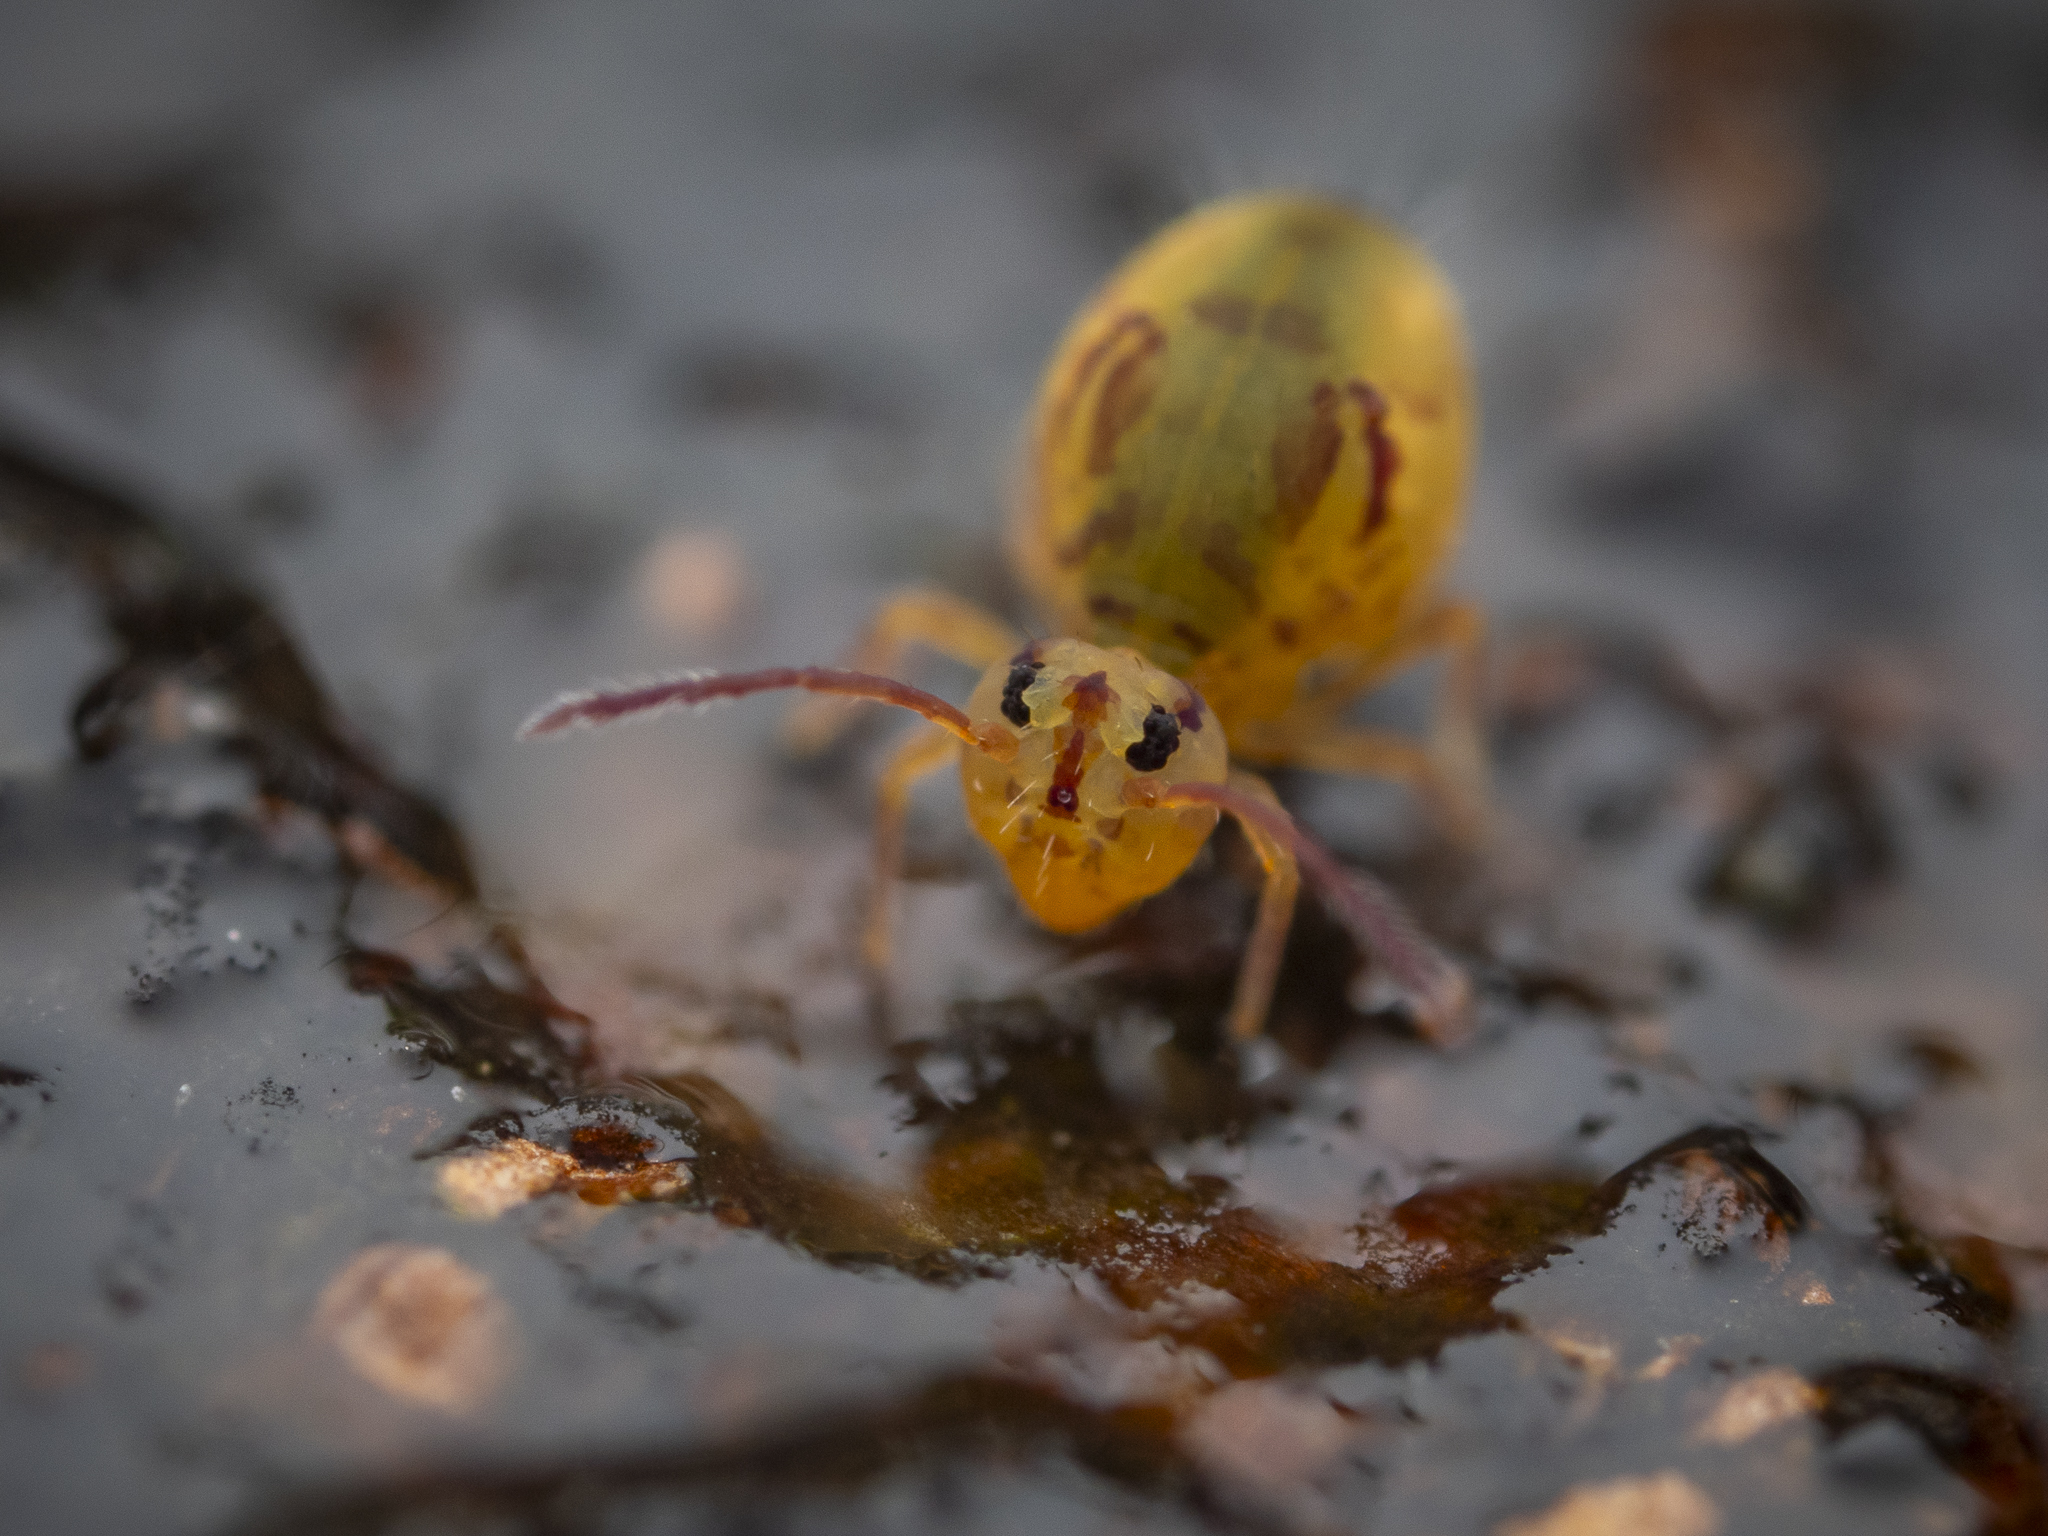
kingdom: Animalia
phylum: Arthropoda
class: Collembola
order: Symphypleona
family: Dicyrtomidae
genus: Dicyrtomina
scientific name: Dicyrtomina ornata
